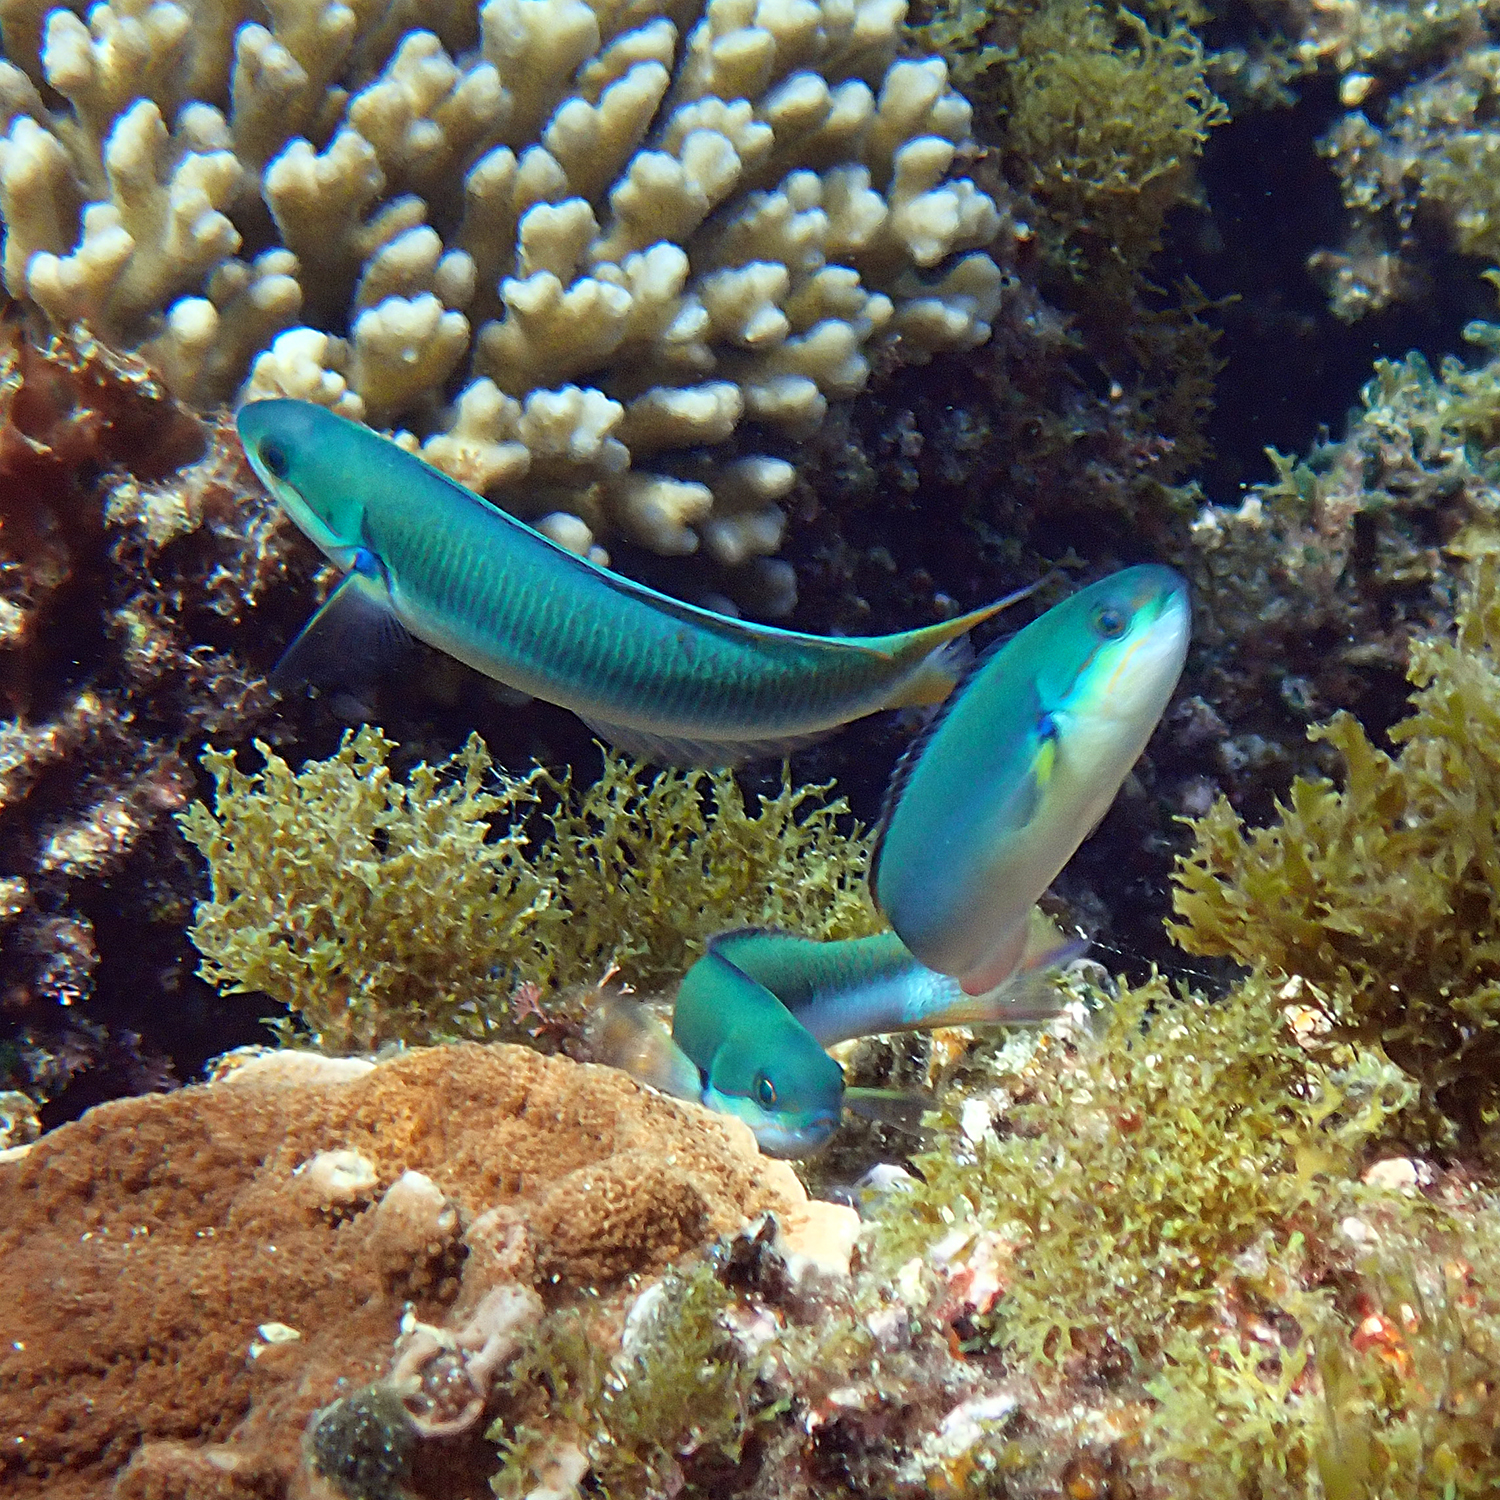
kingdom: Animalia
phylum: Chordata
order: Perciformes
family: Labridae
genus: Thalassoma
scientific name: Thalassoma amblycephalum
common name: Bluehead wrasse
